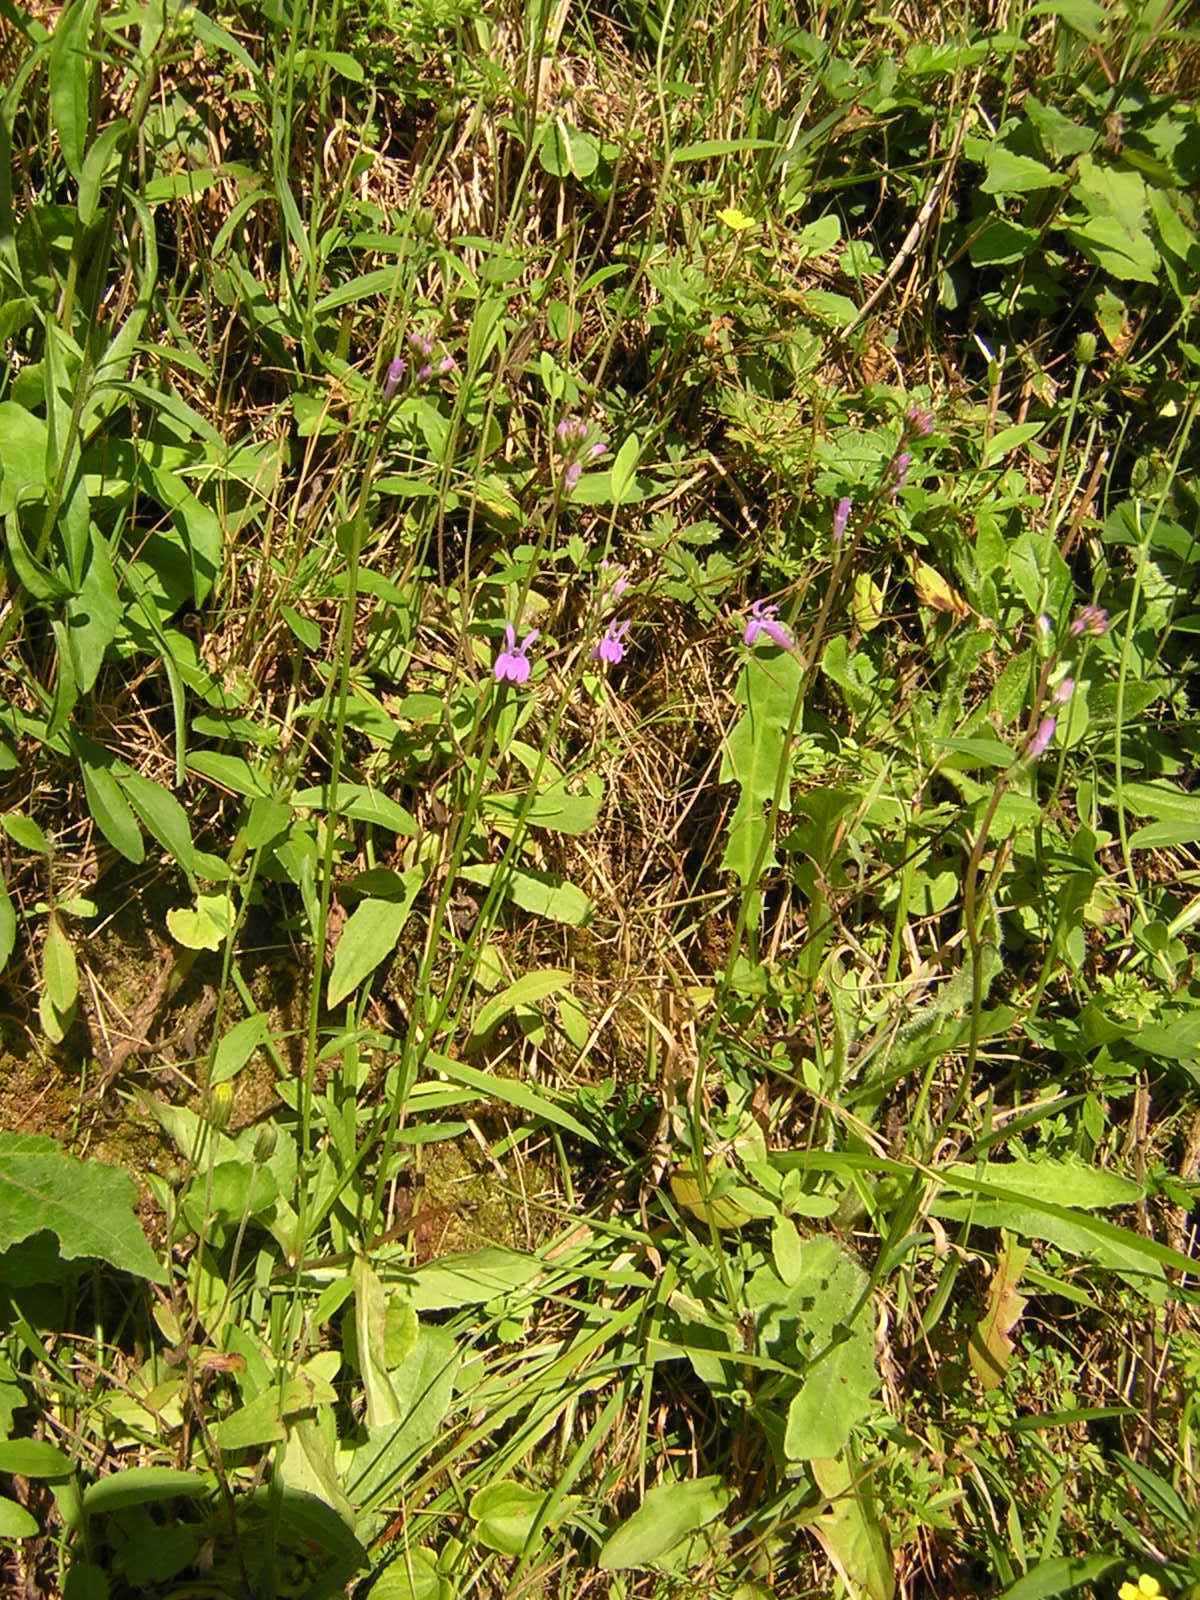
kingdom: Plantae
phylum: Tracheophyta
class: Magnoliopsida
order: Asterales
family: Campanulaceae
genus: Lobelia
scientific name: Lobelia urens
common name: Heath lobelia
